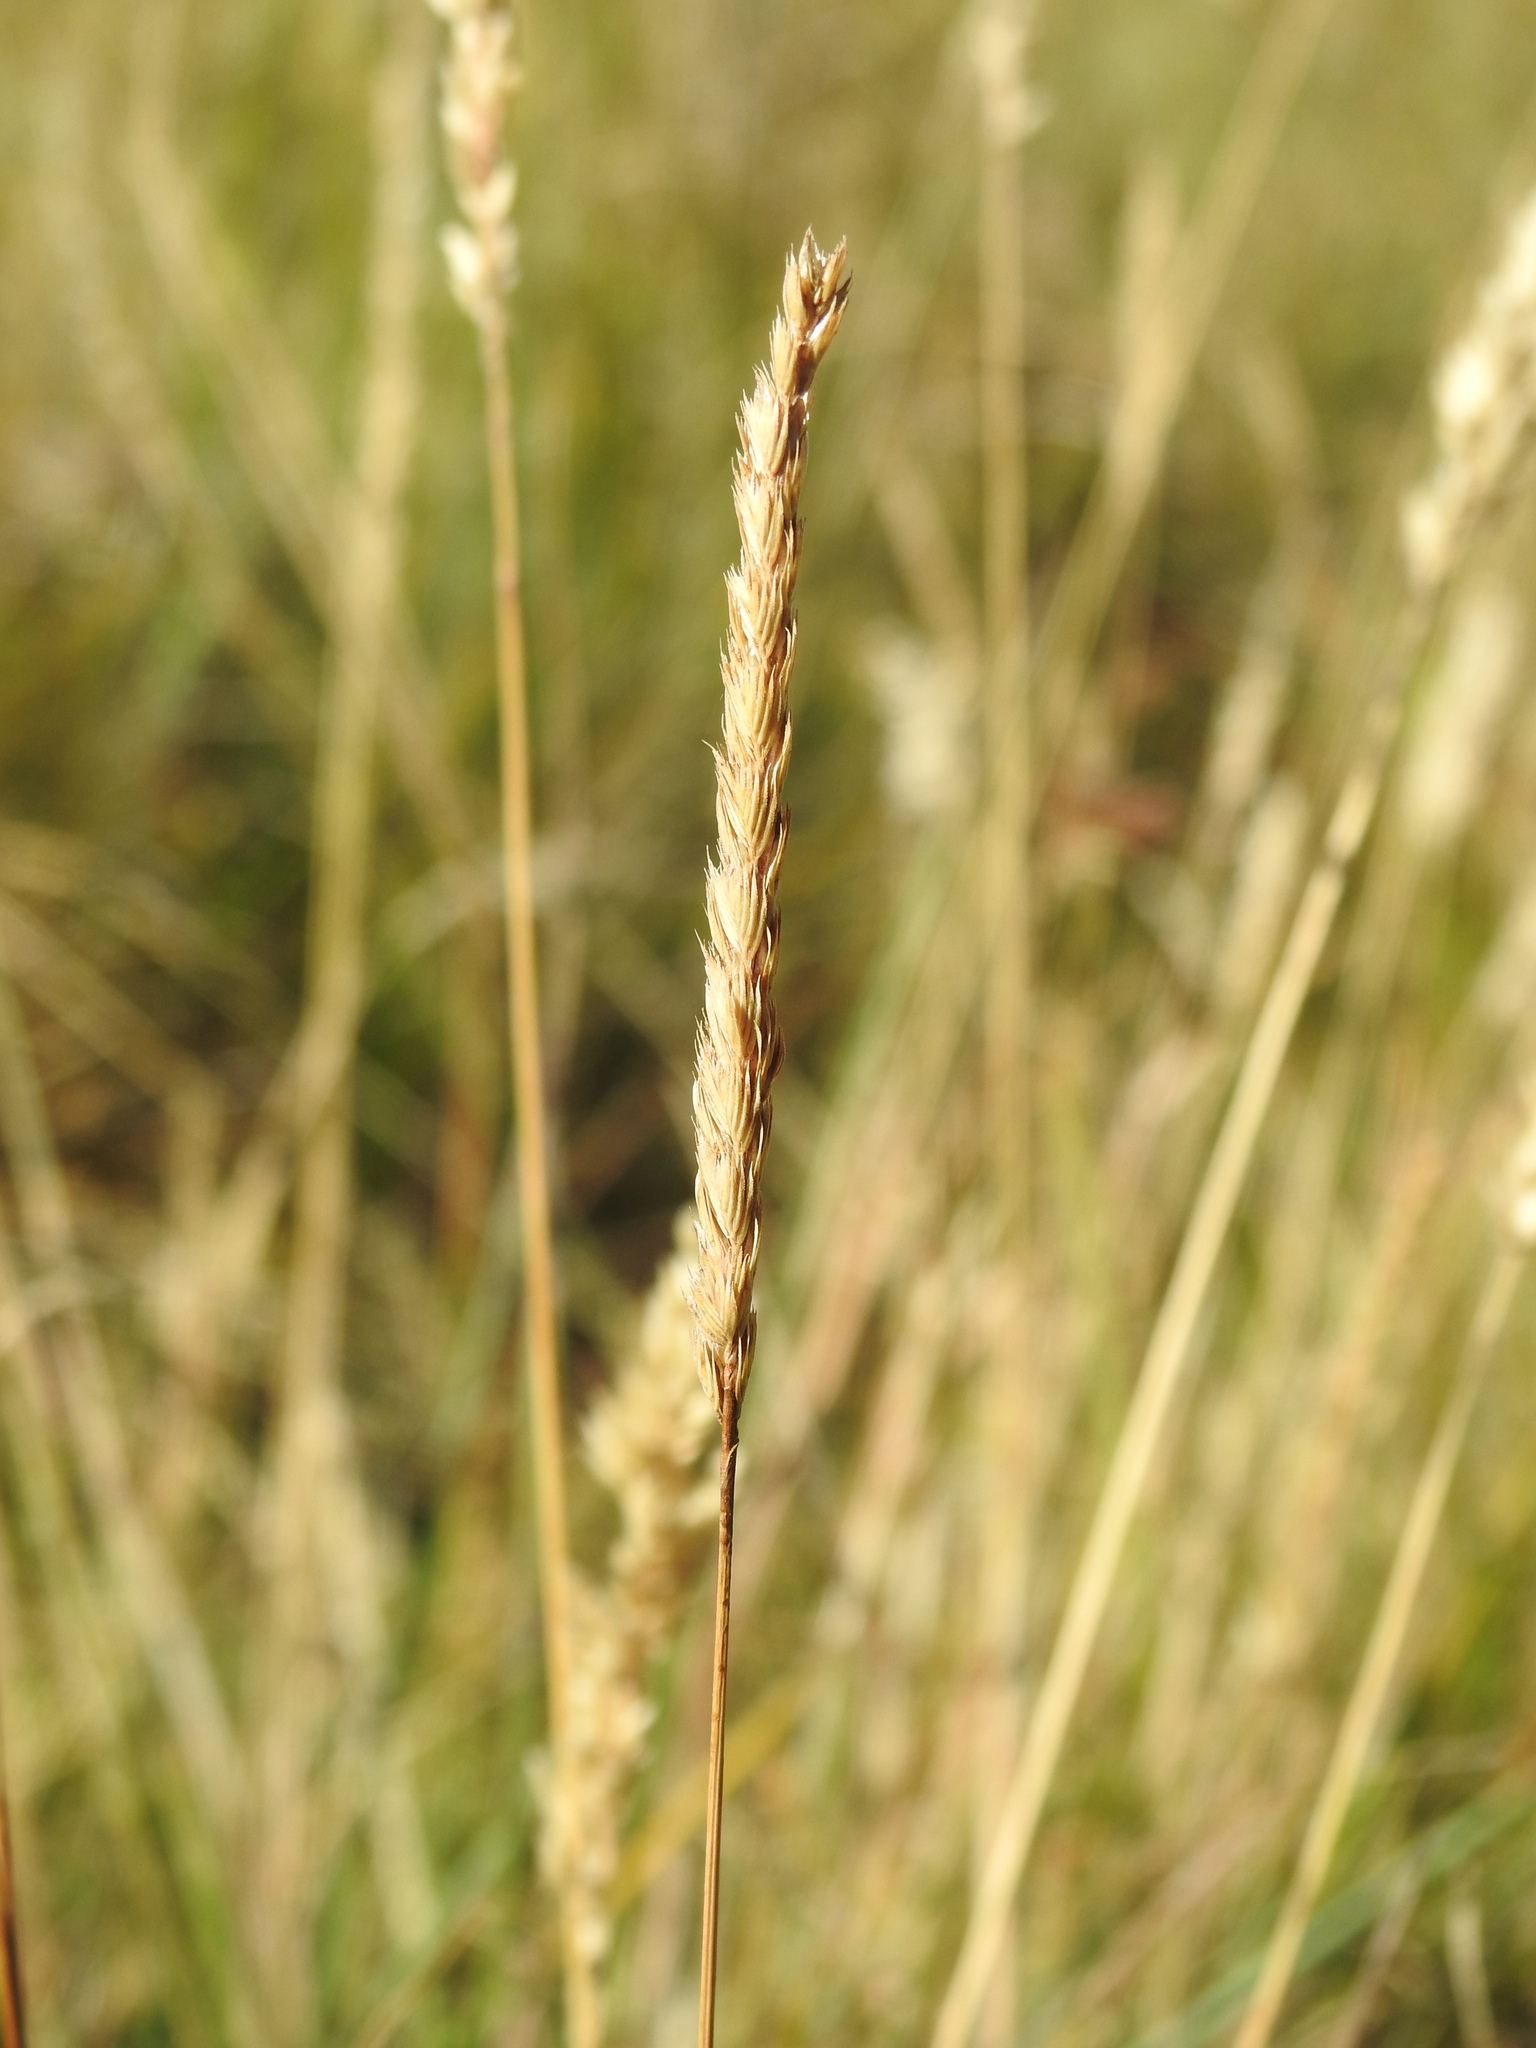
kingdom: Plantae
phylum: Tracheophyta
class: Liliopsida
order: Poales
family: Poaceae
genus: Cynosurus
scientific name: Cynosurus cristatus
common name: Crested dog's-tail
